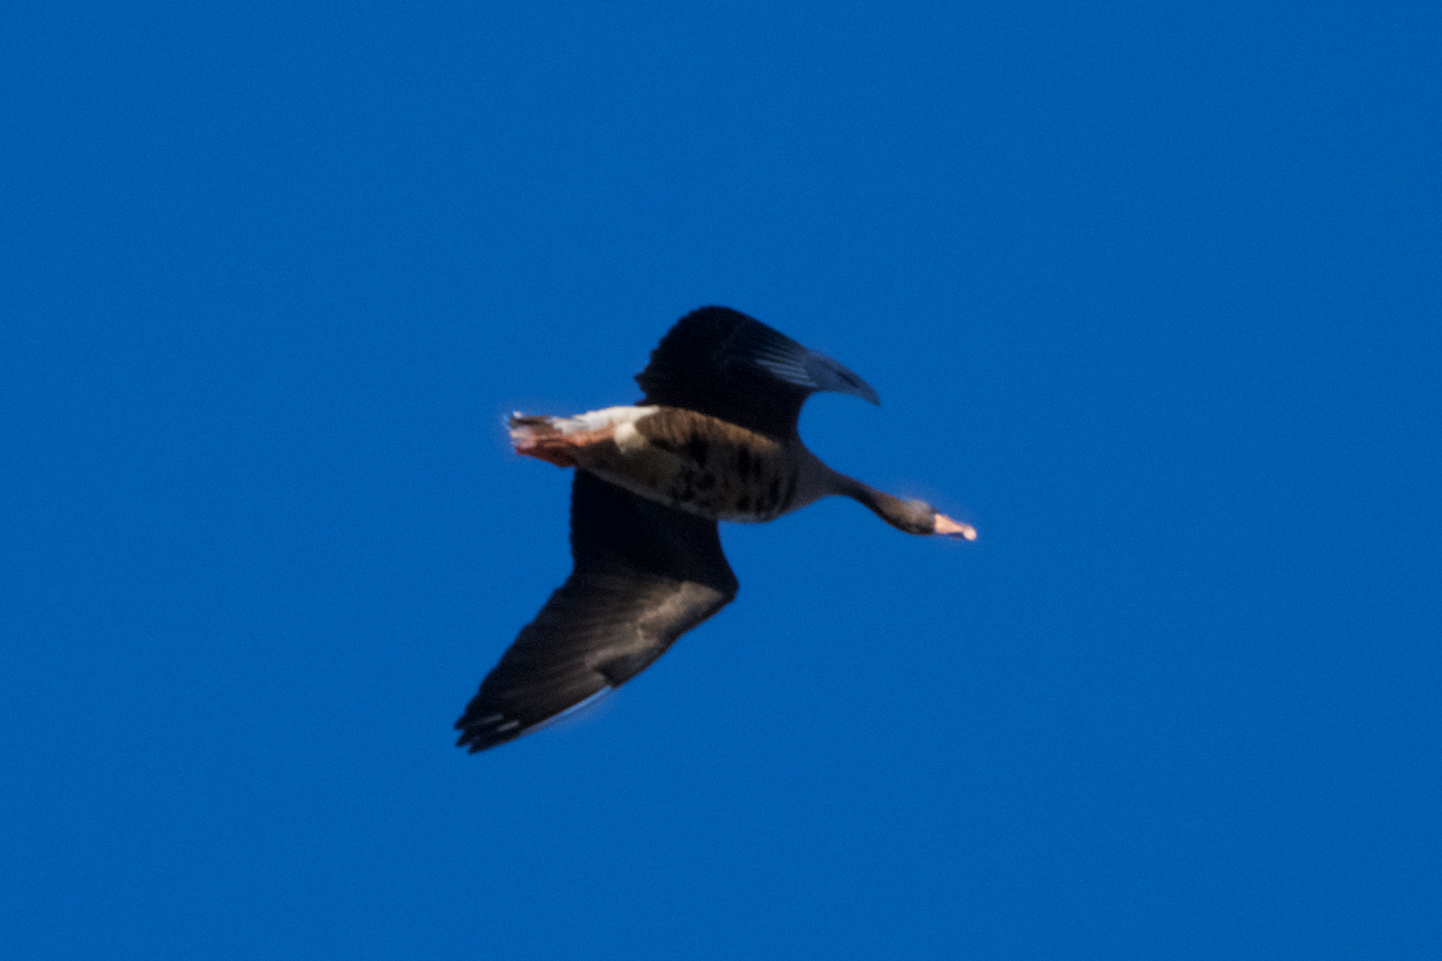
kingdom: Animalia
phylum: Chordata
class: Aves
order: Anseriformes
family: Anatidae
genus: Anser
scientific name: Anser albifrons
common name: Greater white-fronted goose
